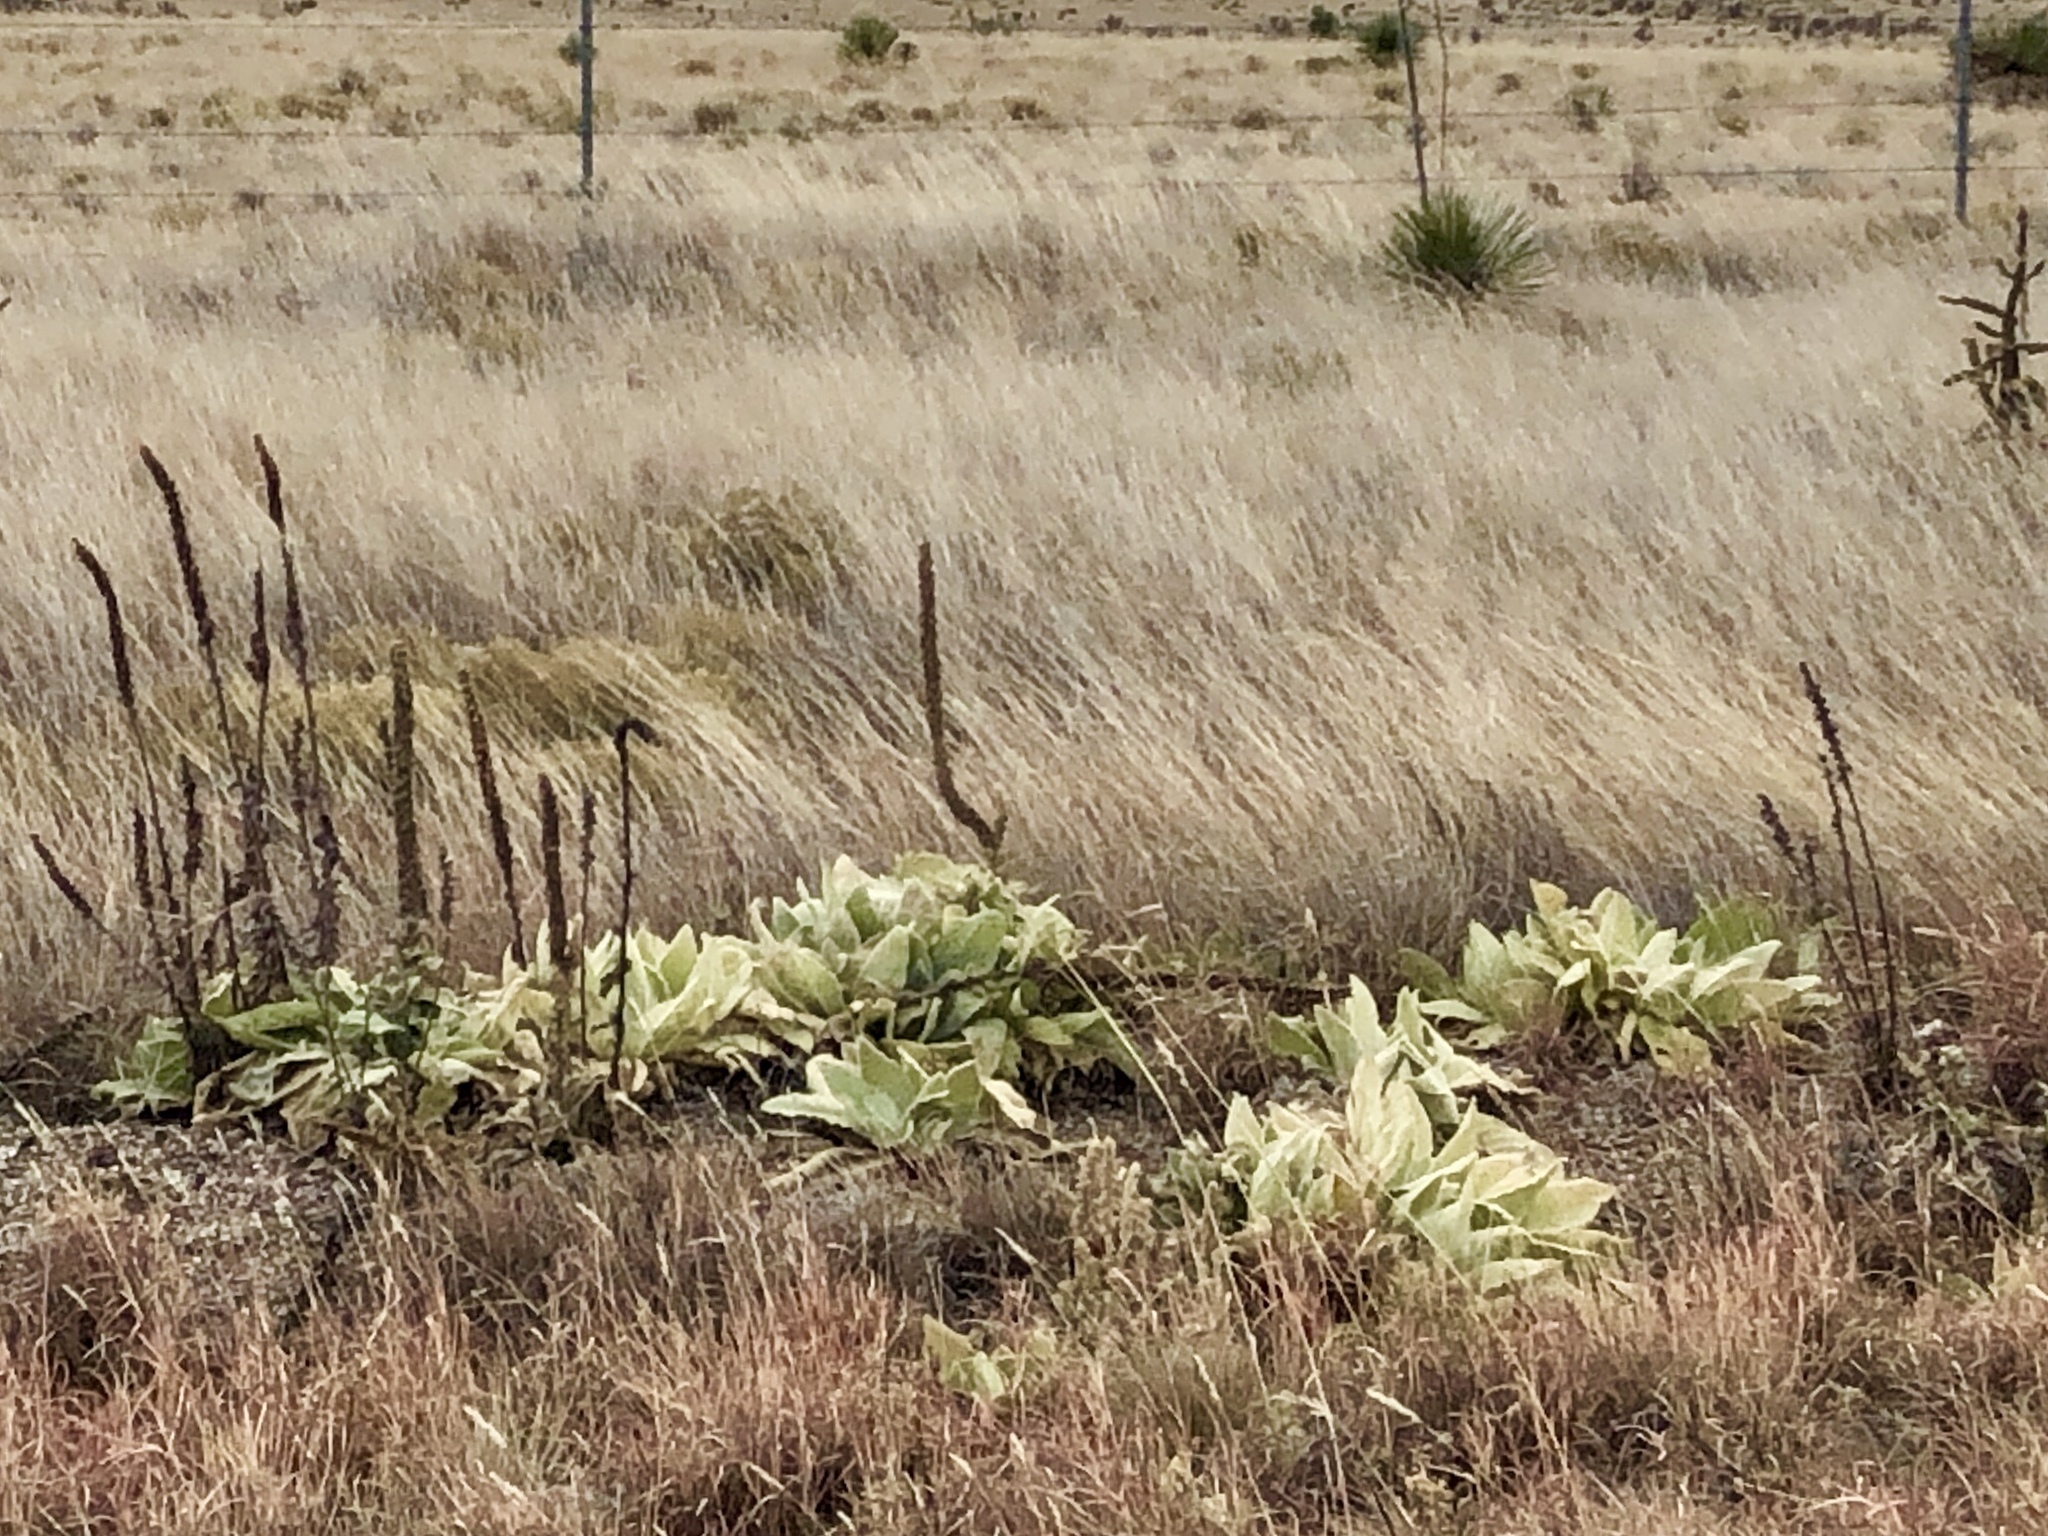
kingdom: Plantae
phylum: Tracheophyta
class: Magnoliopsida
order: Lamiales
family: Scrophulariaceae
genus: Verbascum
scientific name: Verbascum thapsus
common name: Common mullein
